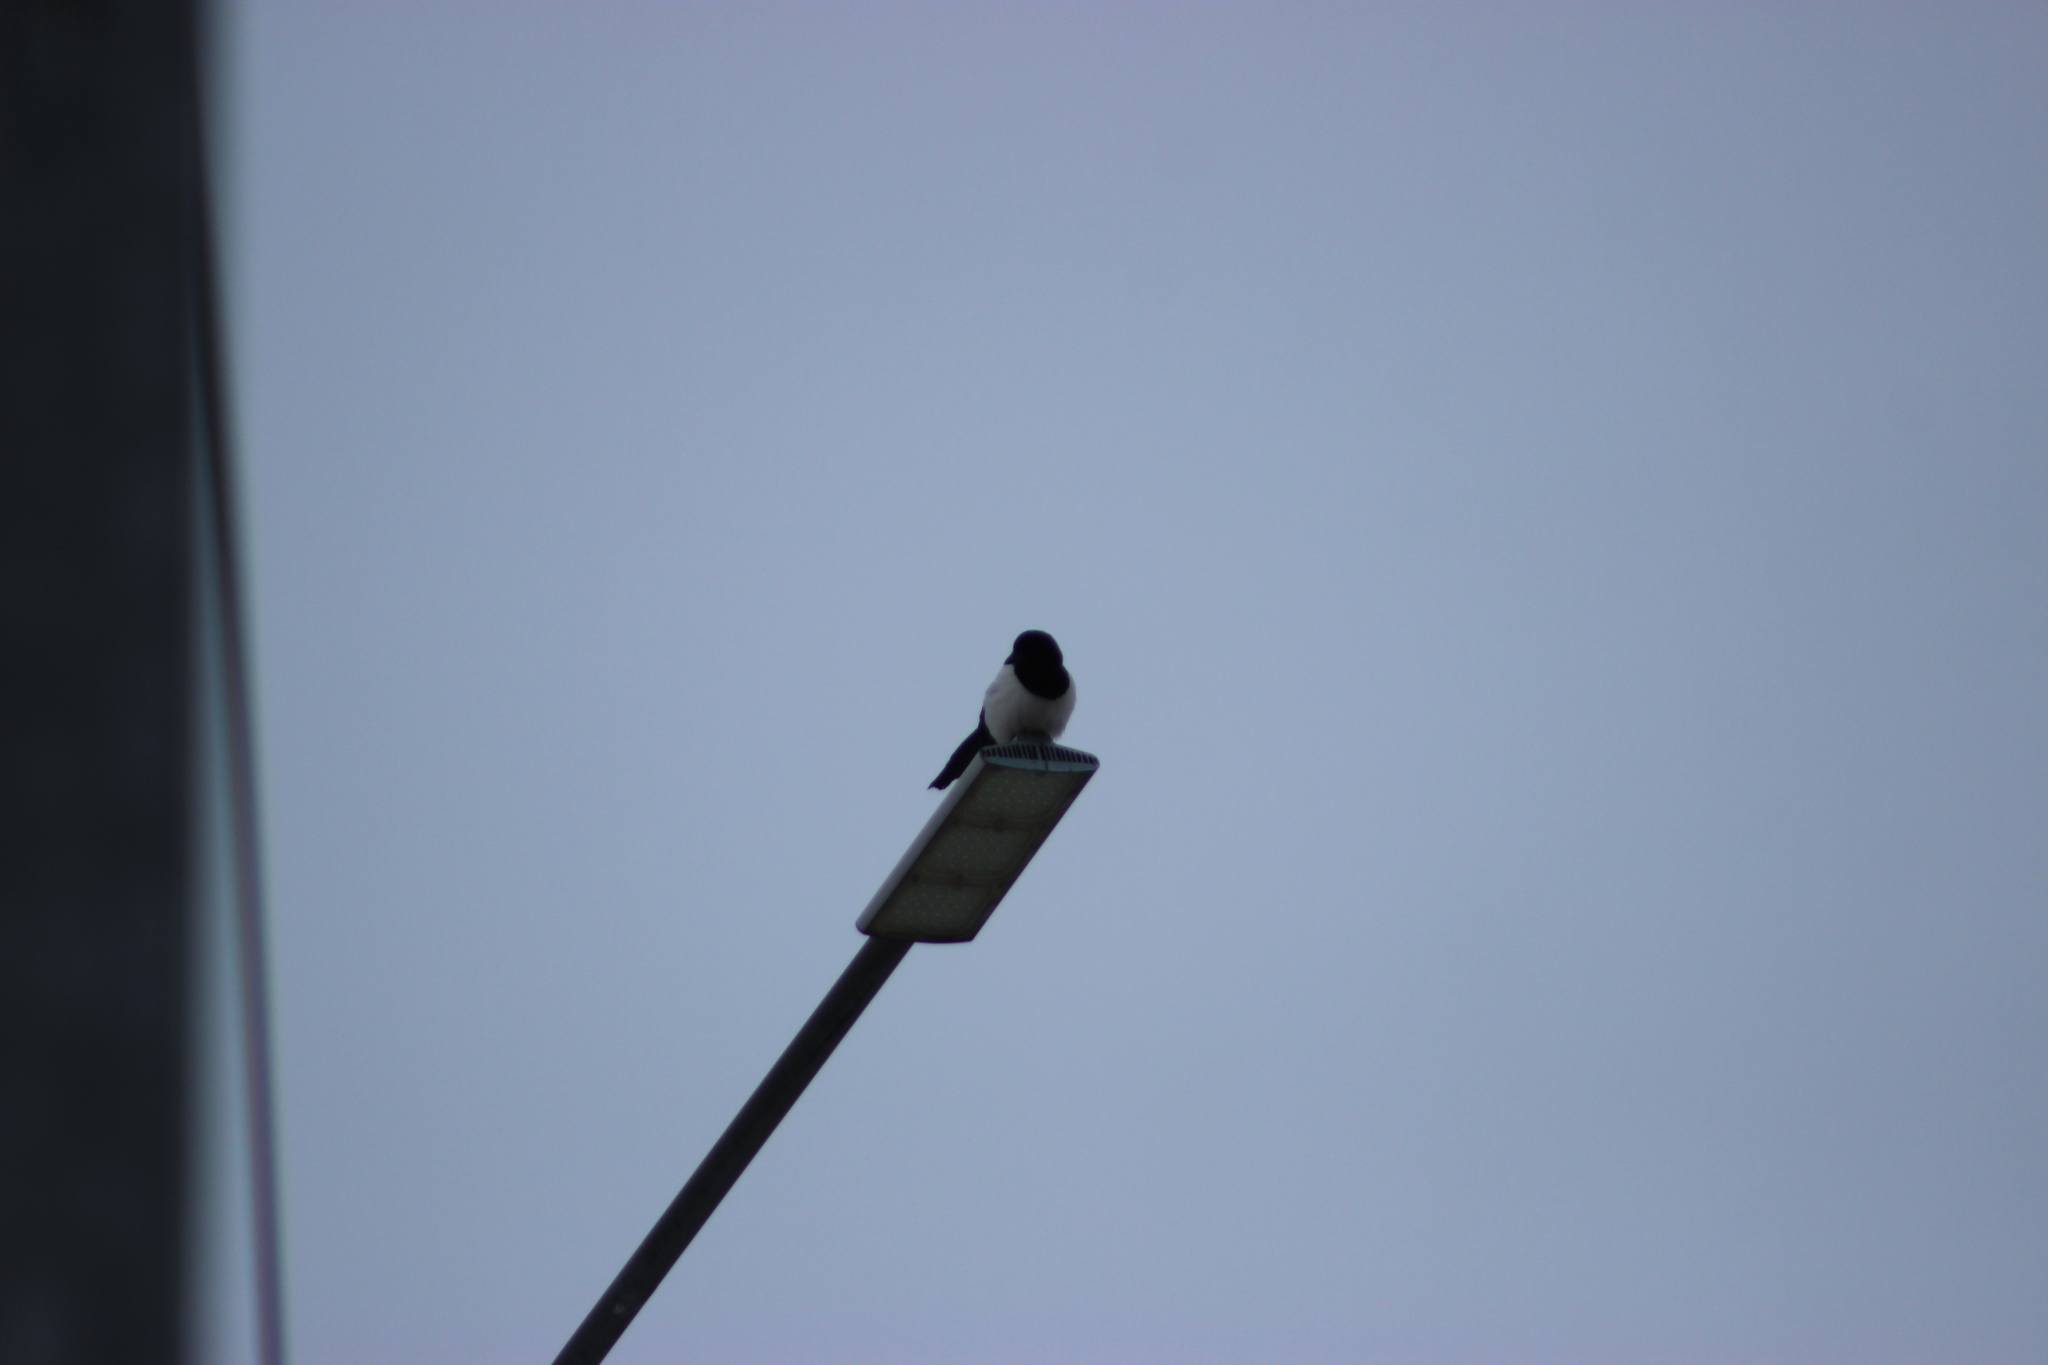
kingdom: Animalia
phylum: Chordata
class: Aves
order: Passeriformes
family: Corvidae
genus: Pica
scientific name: Pica pica
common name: Eurasian magpie
